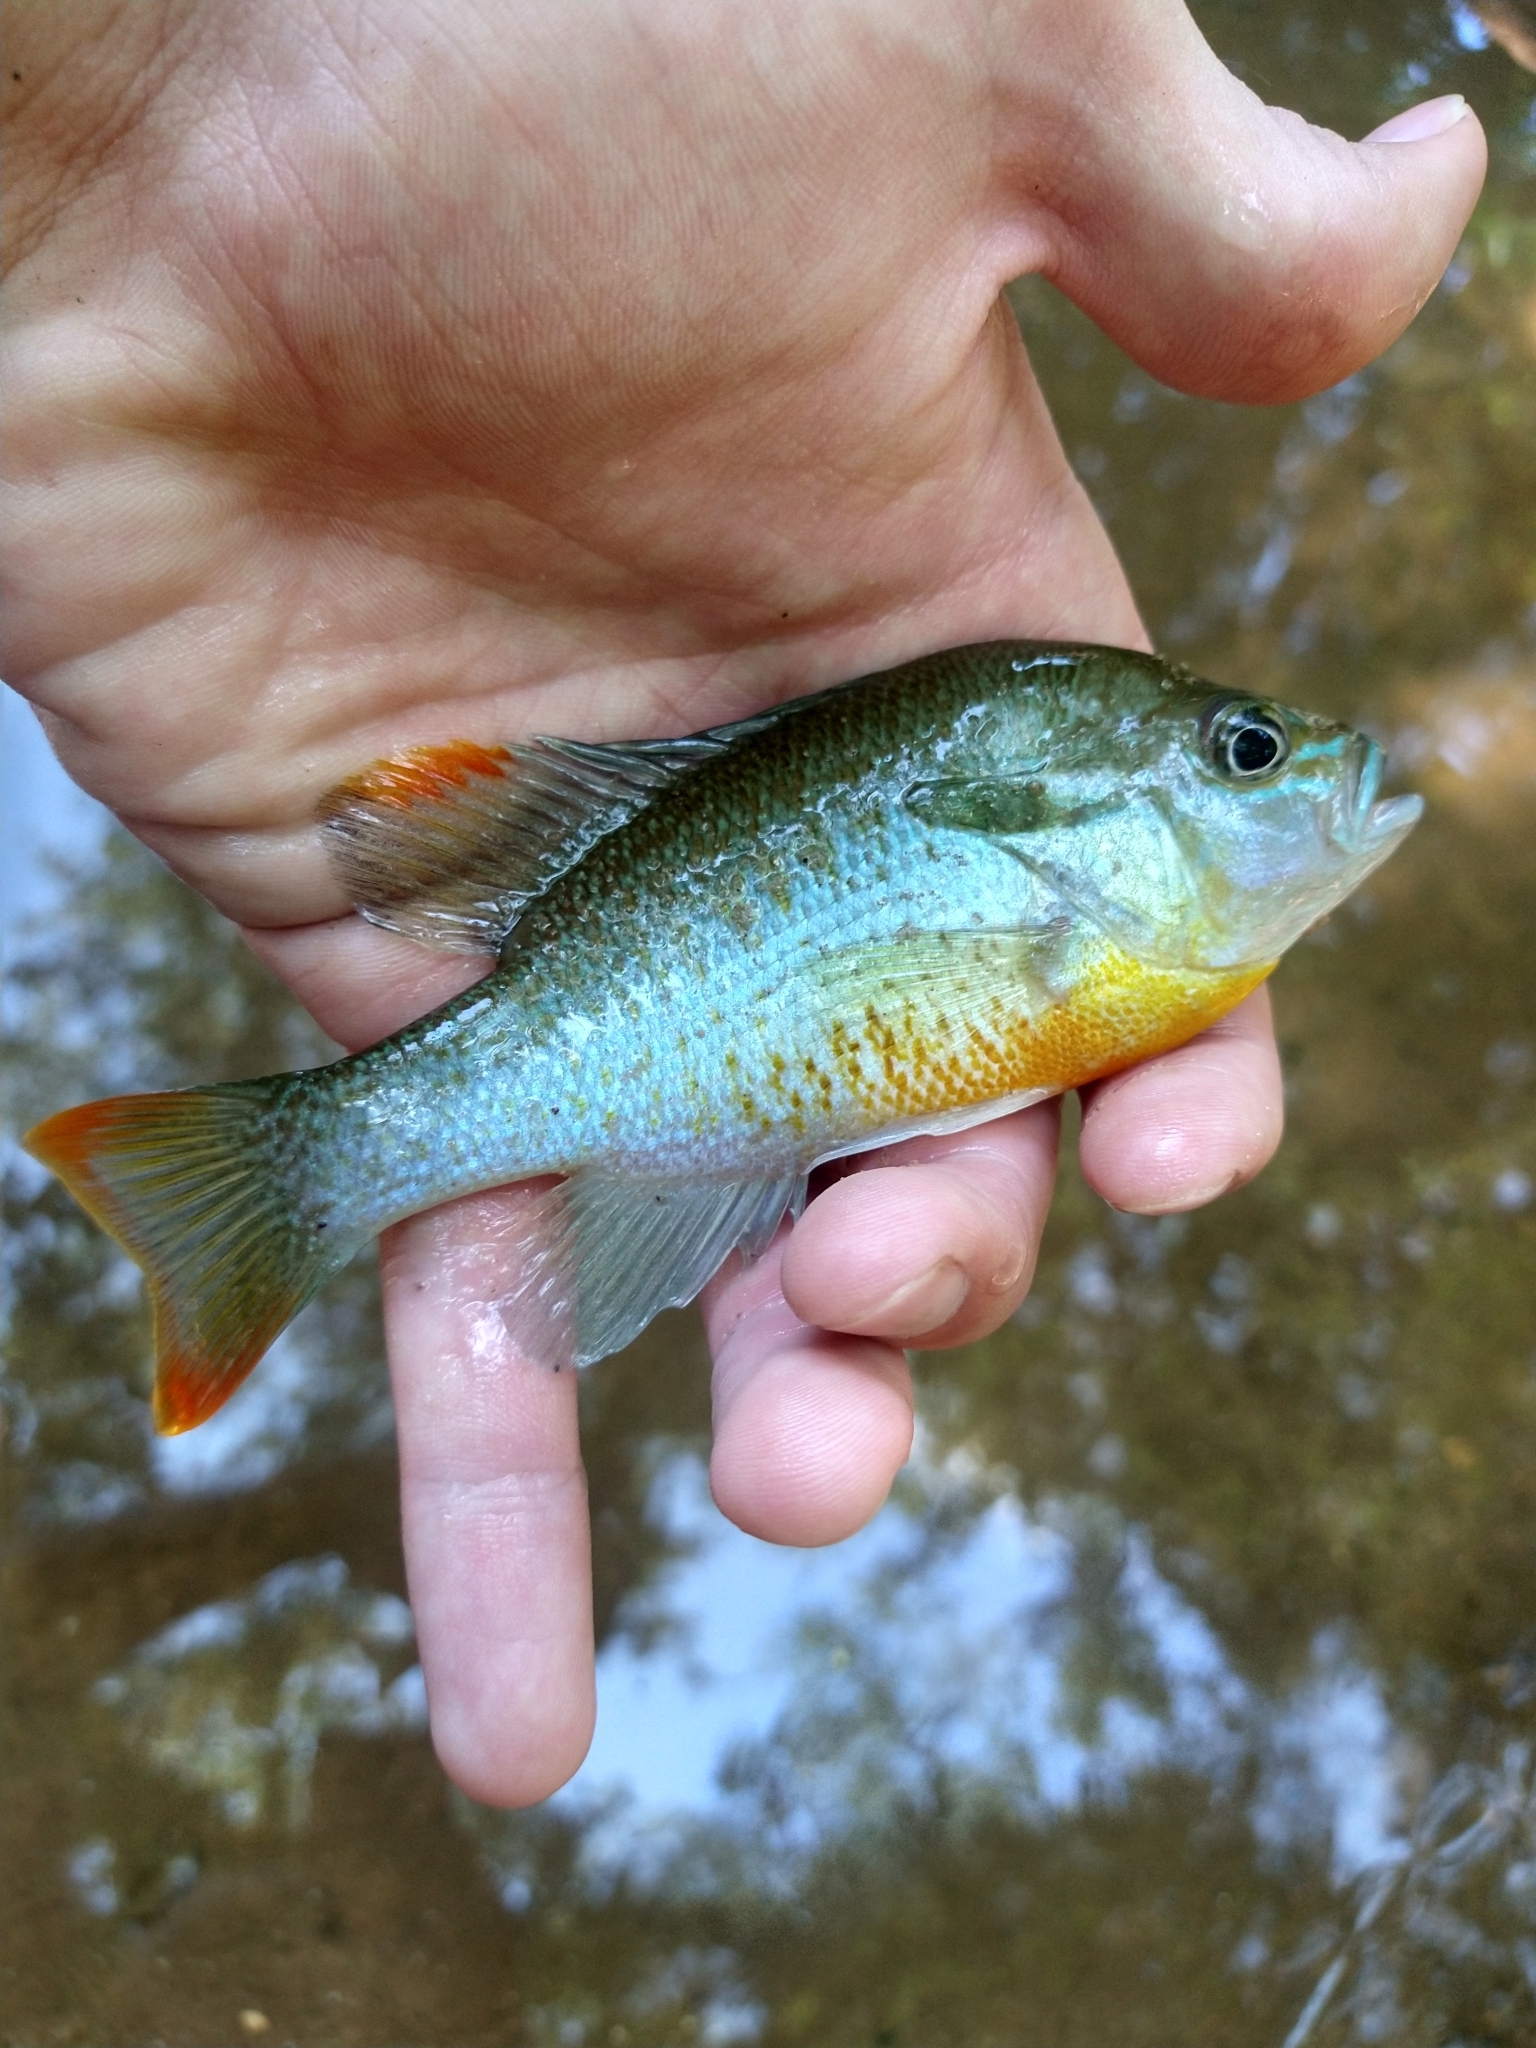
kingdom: Animalia
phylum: Chordata
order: Perciformes
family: Centrarchidae
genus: Lepomis
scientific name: Lepomis auritus
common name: Redbreast sunfish
